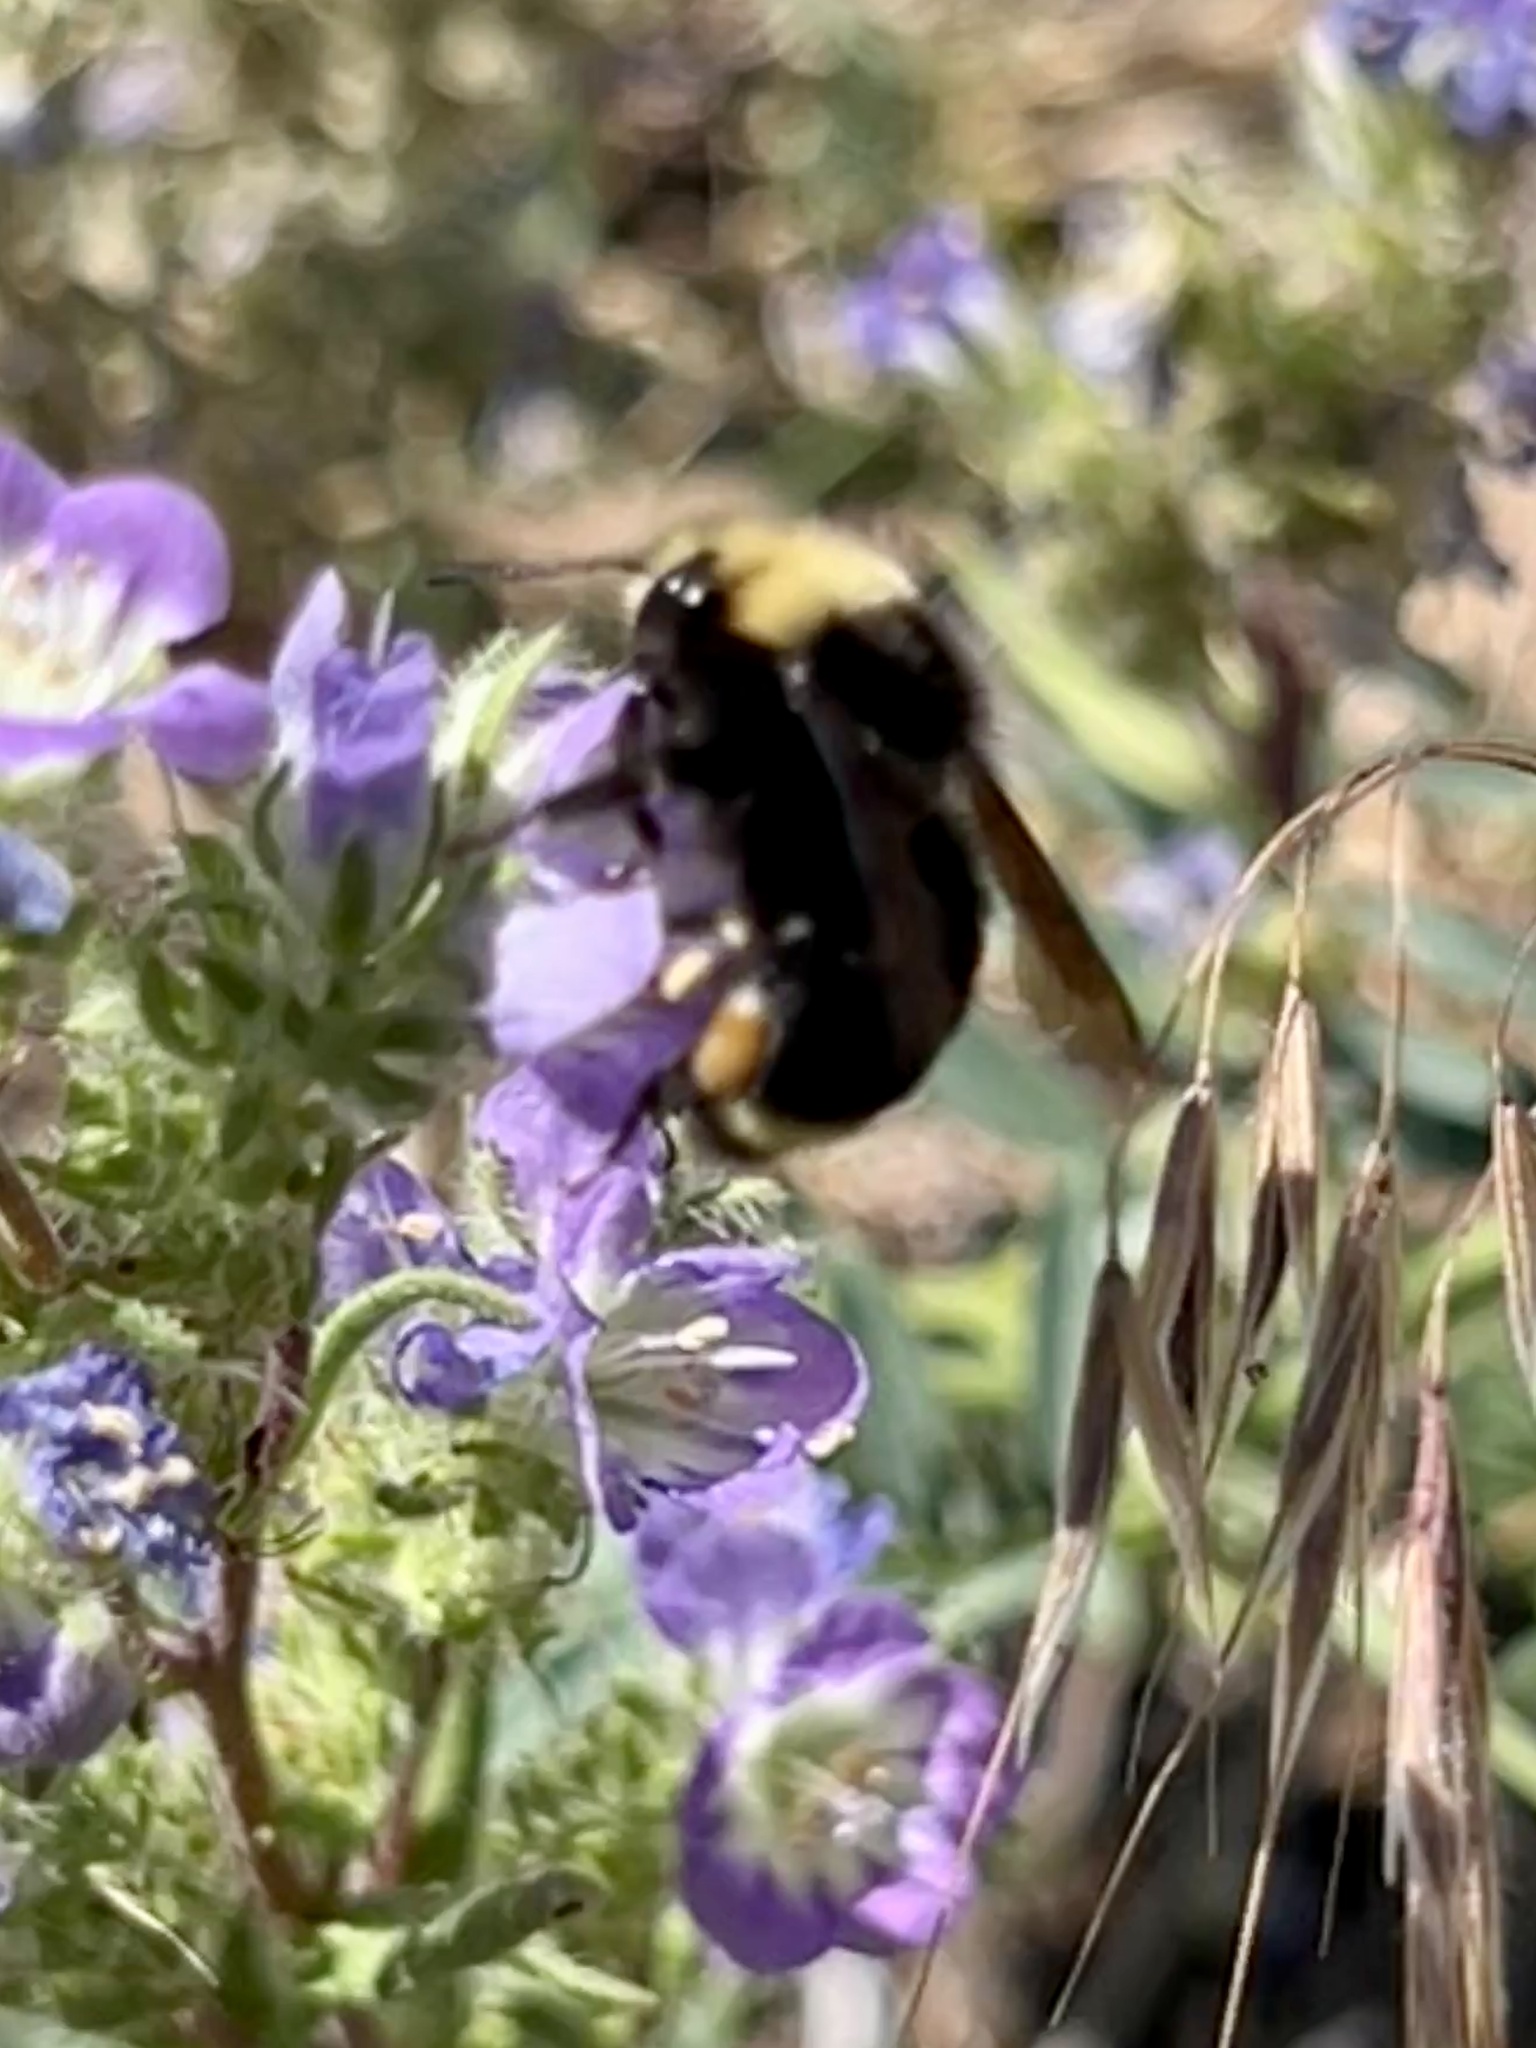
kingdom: Animalia
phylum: Arthropoda
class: Insecta
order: Hymenoptera
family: Apidae
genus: Bombus
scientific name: Bombus vosnesenskii
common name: Vosnesensky bumble bee
